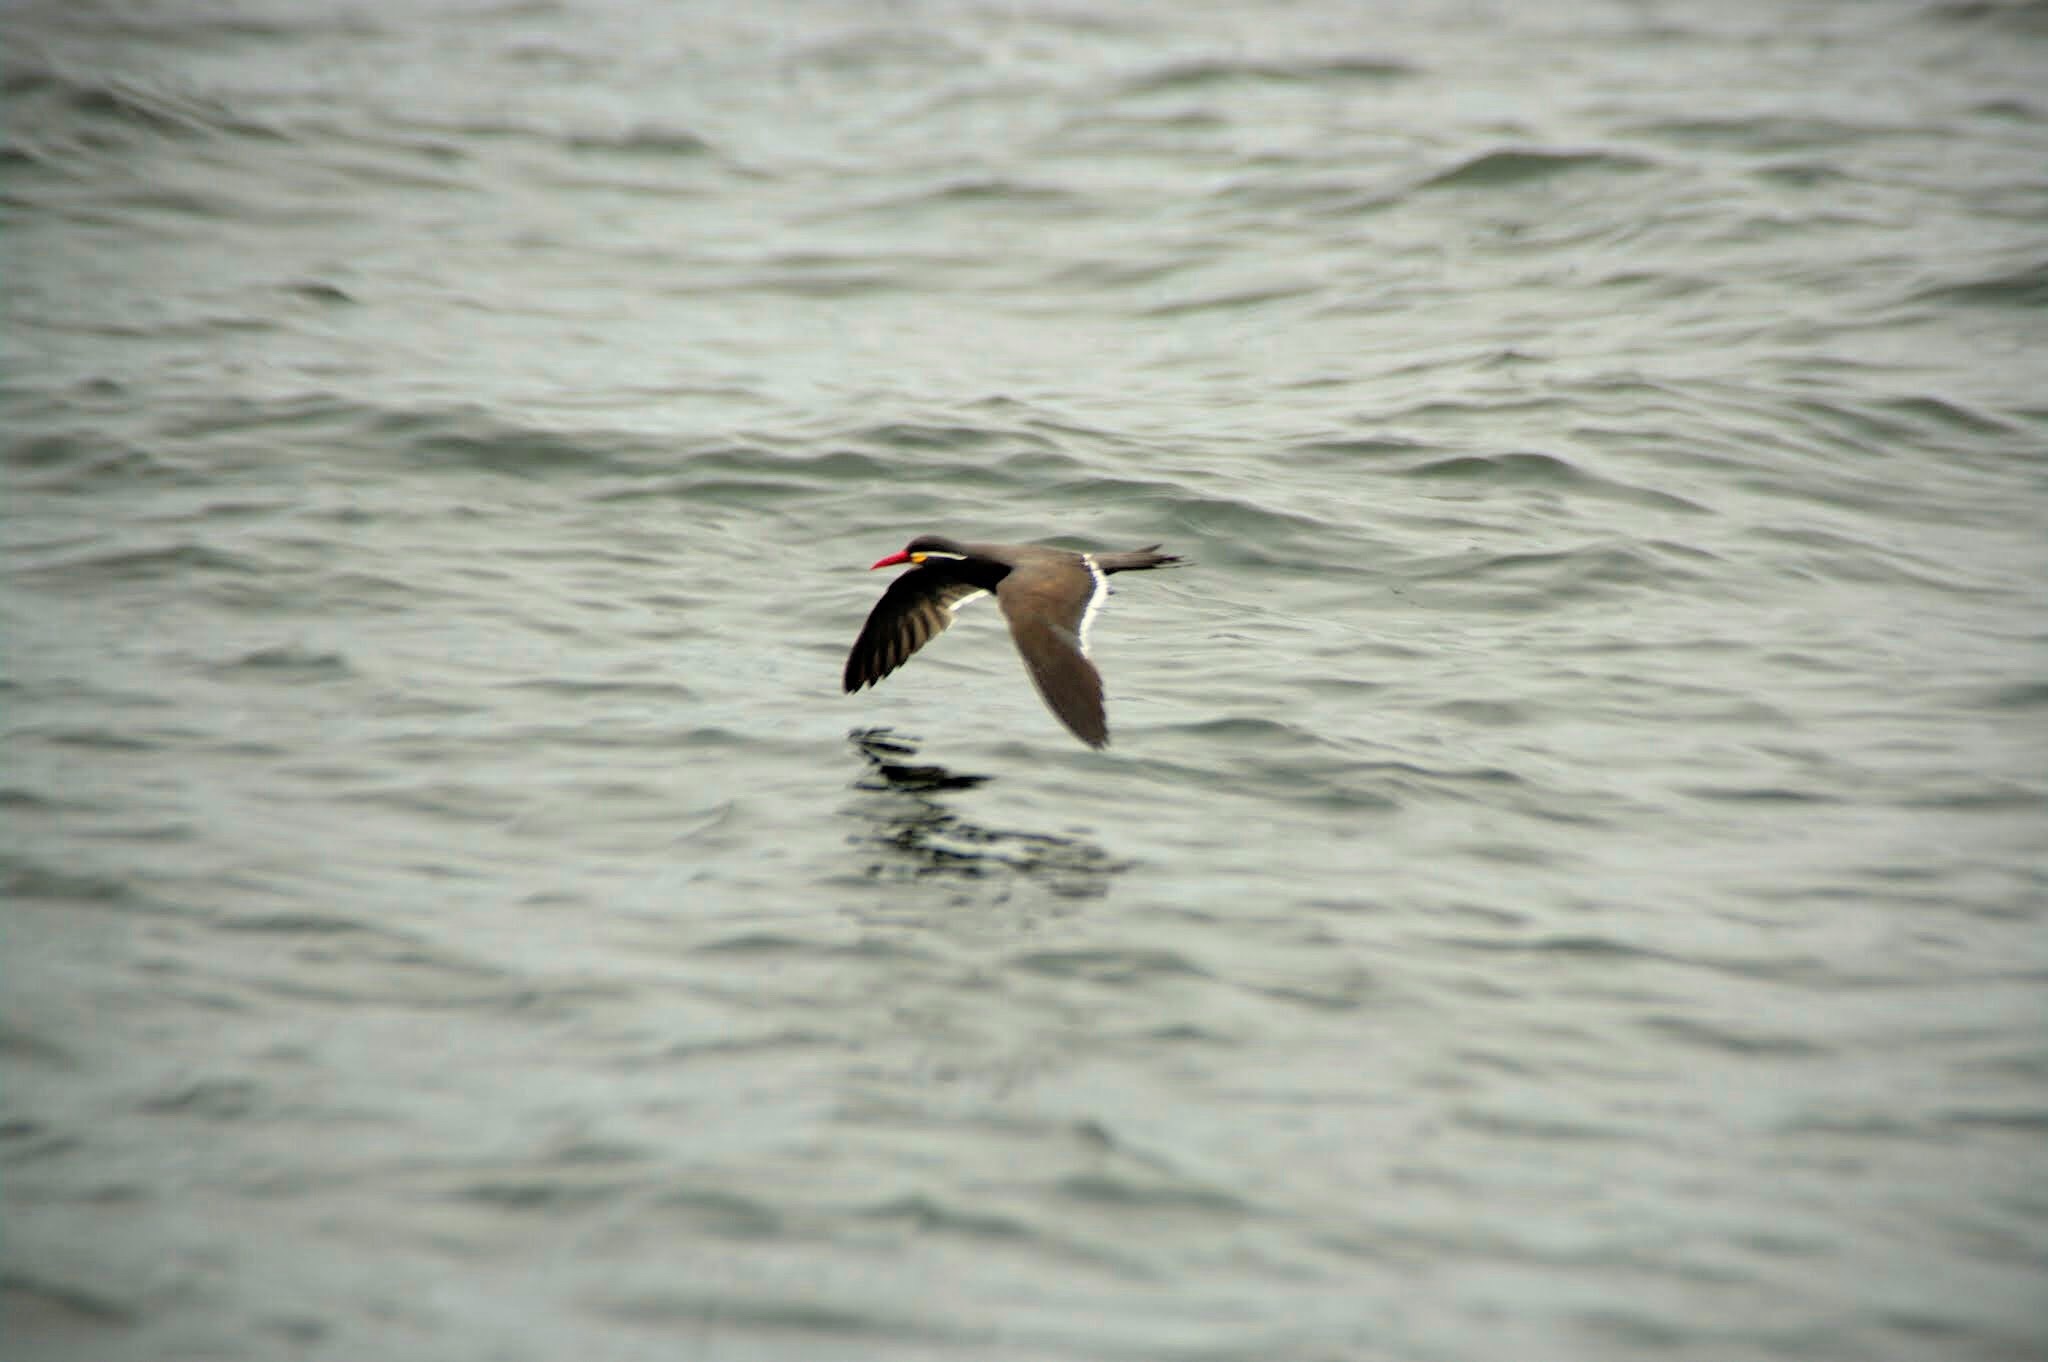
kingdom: Animalia
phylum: Chordata
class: Aves
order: Charadriiformes
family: Laridae
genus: Larosterna
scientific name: Larosterna inca
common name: Inca tern
